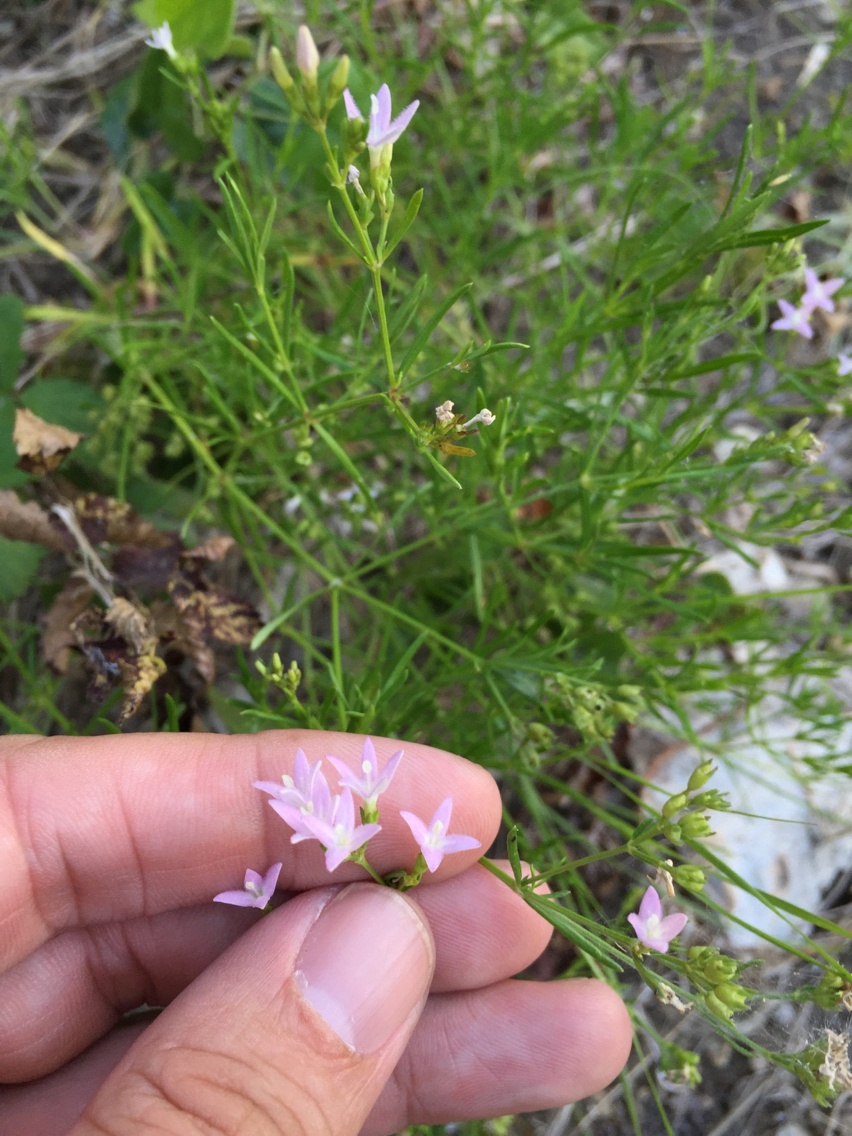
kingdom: Plantae
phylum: Tracheophyta
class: Magnoliopsida
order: Gentianales
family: Rubiaceae
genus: Stenaria
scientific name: Stenaria nigricans
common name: Diamondflowers
